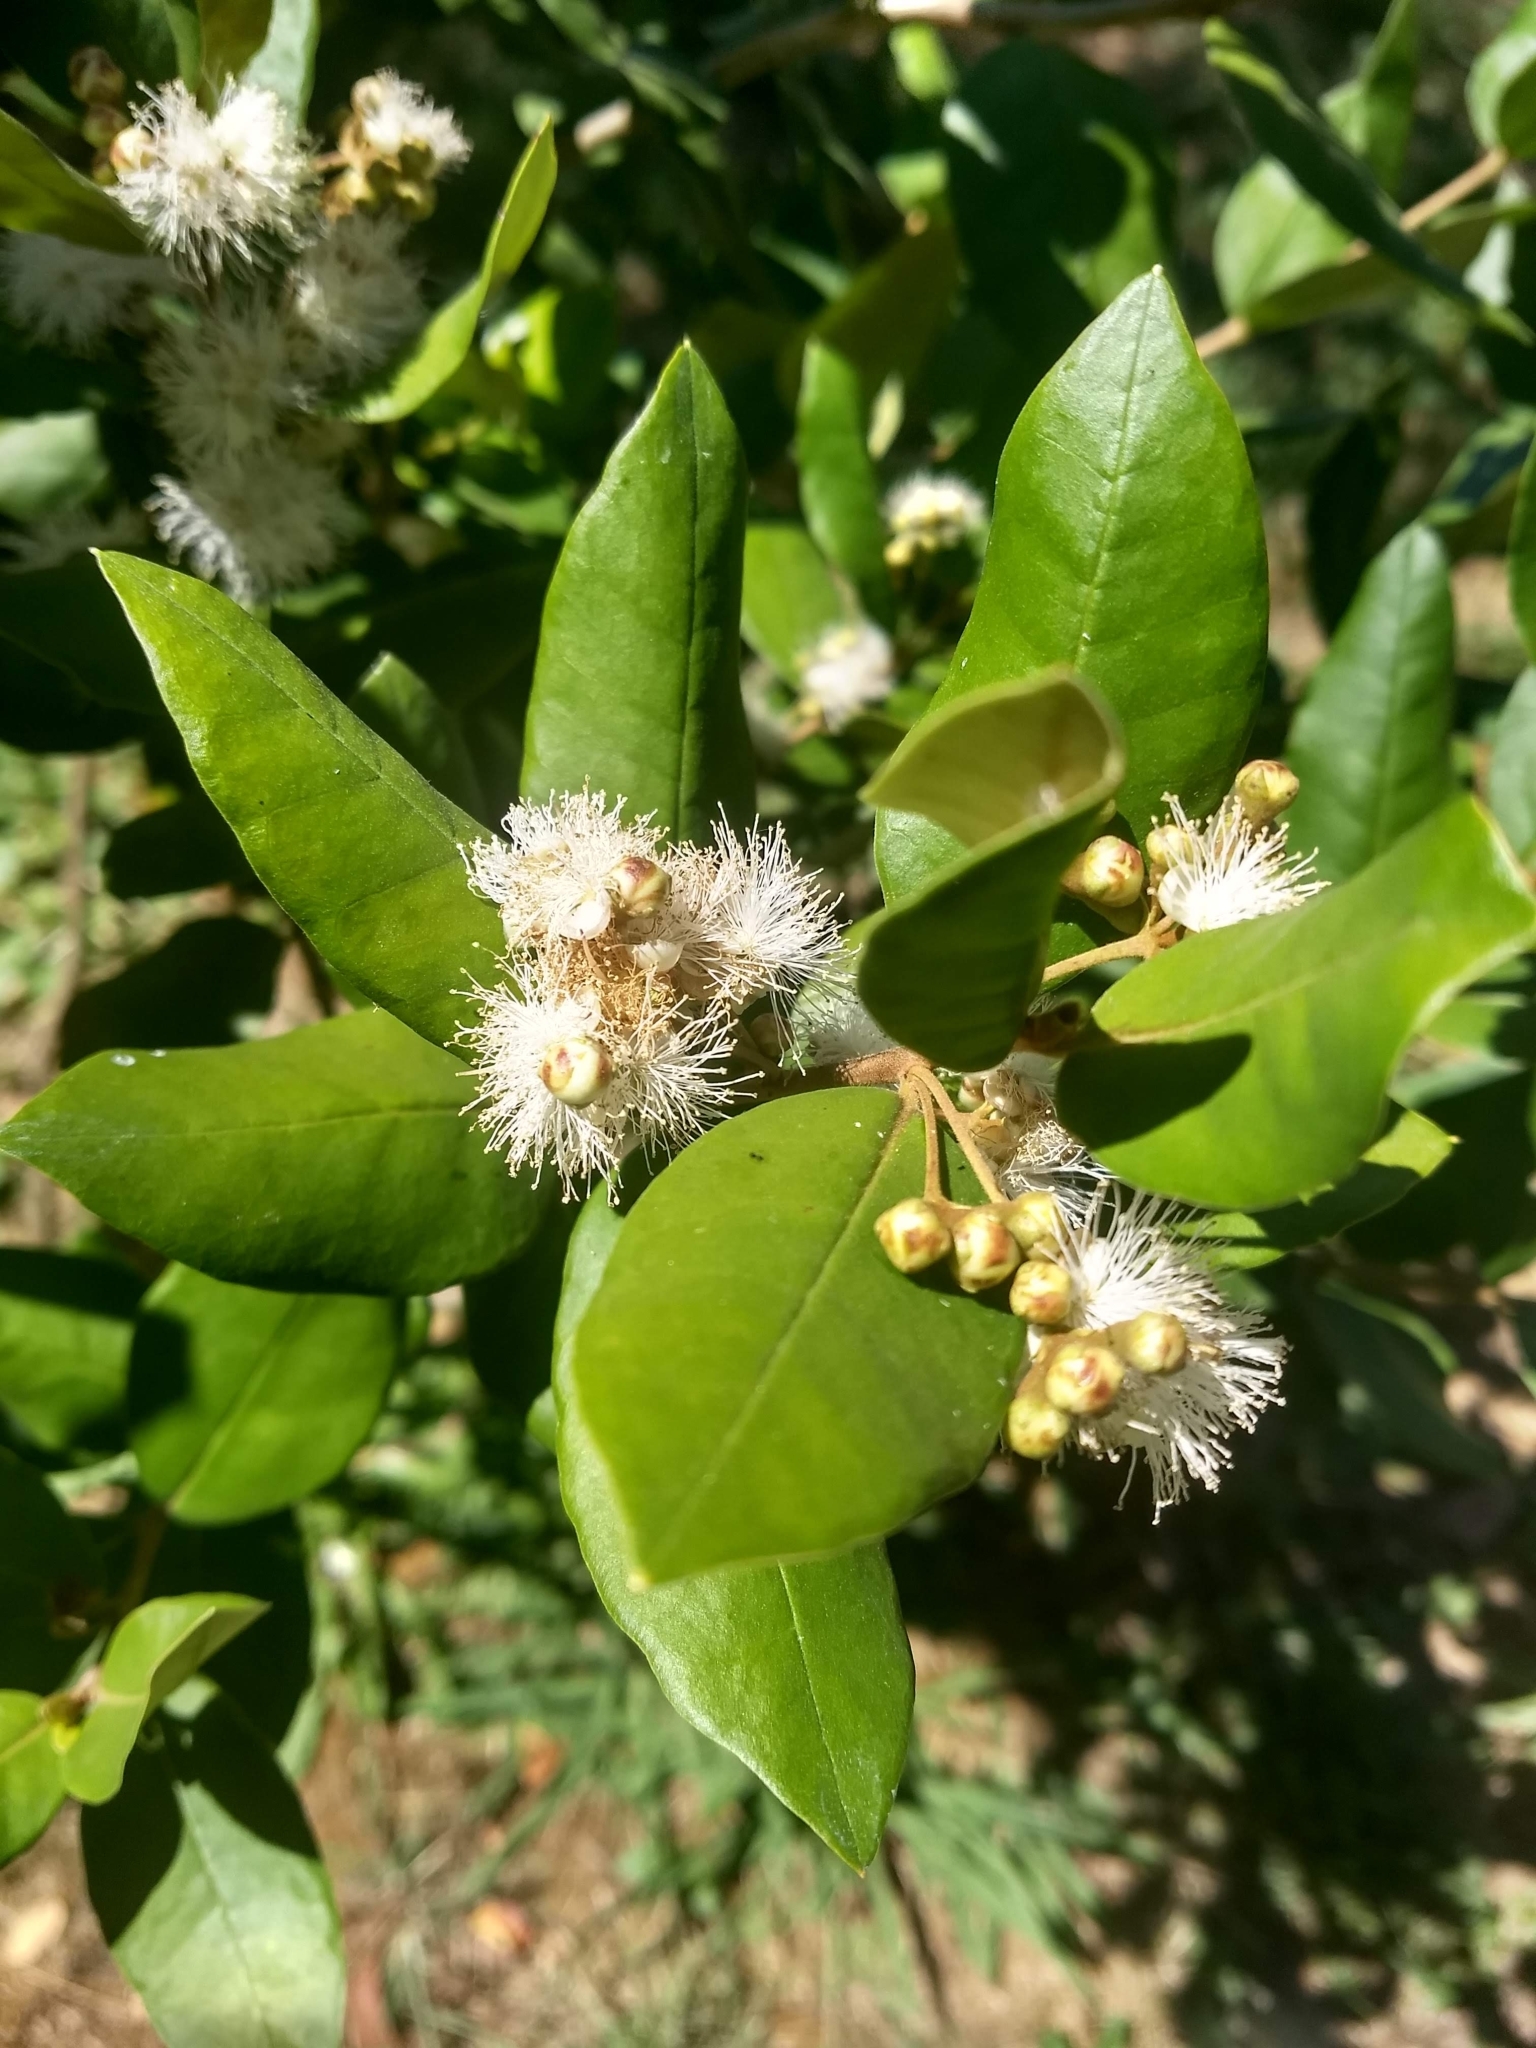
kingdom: Plantae
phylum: Tracheophyta
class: Magnoliopsida
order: Myrtales
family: Myrtaceae
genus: Myrceugenia
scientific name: Myrceugenia exsucca
